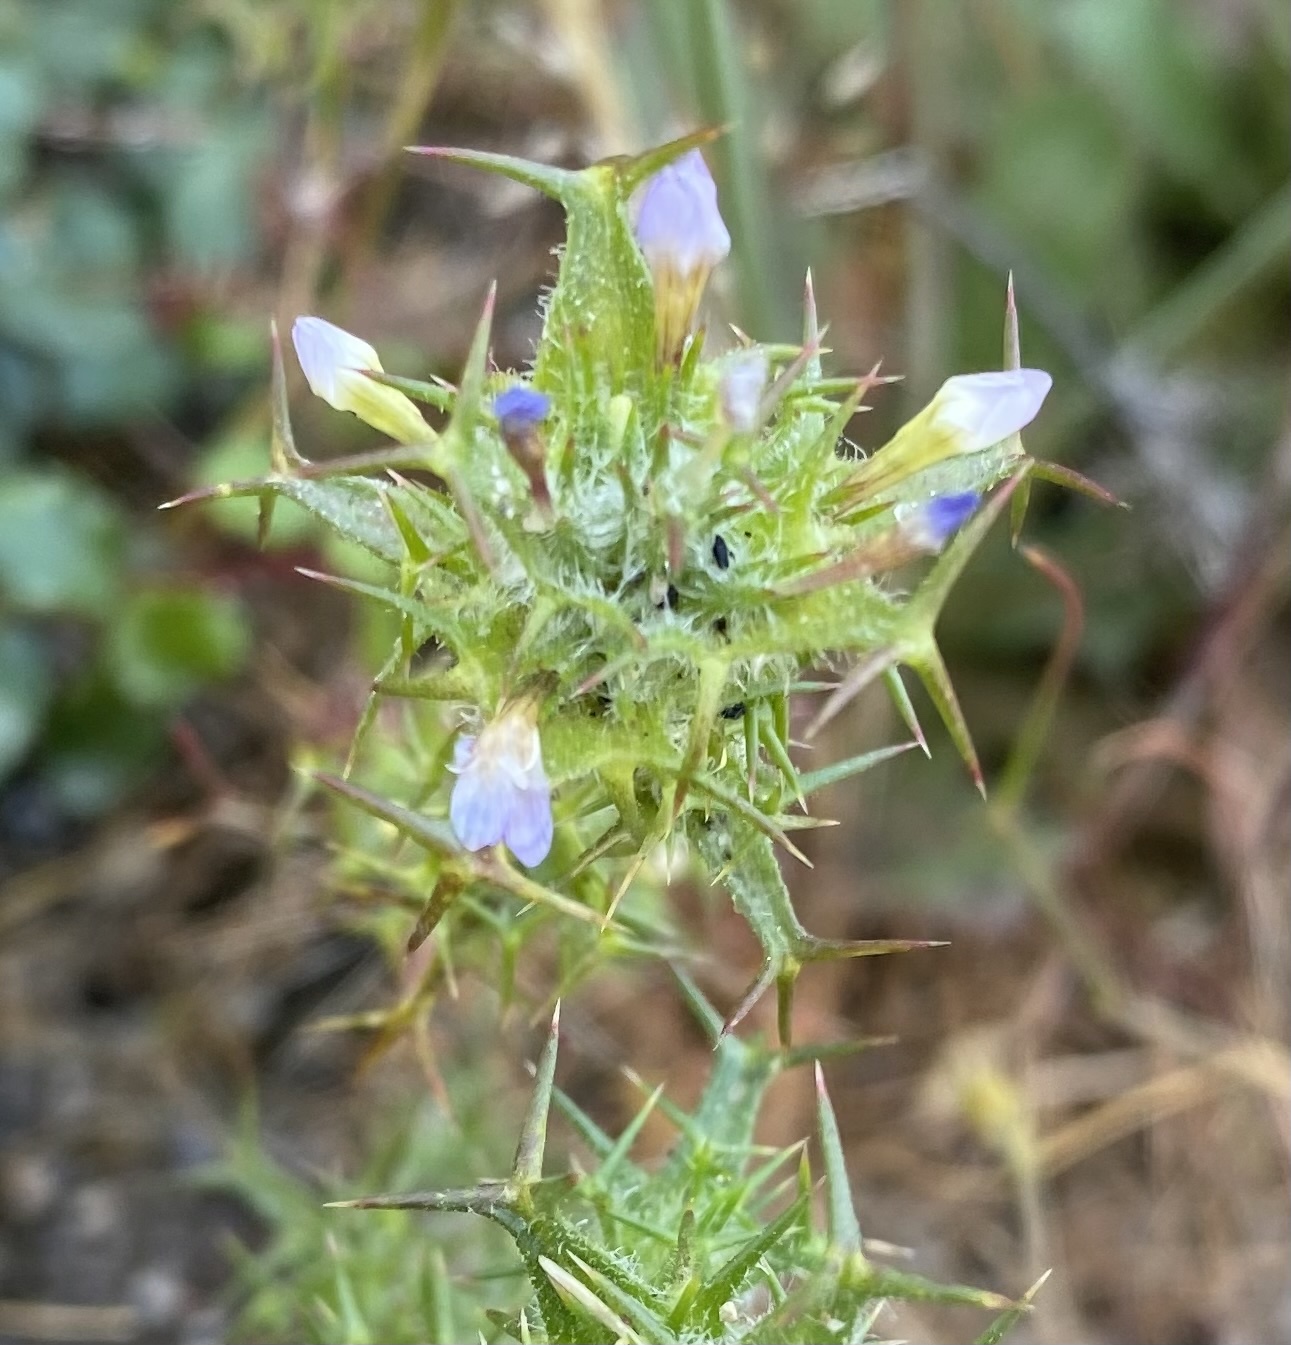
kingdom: Plantae
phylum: Tracheophyta
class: Magnoliopsida
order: Ericales
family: Polemoniaceae
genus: Navarretia
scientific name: Navarretia hamata
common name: Hooked navarretia
